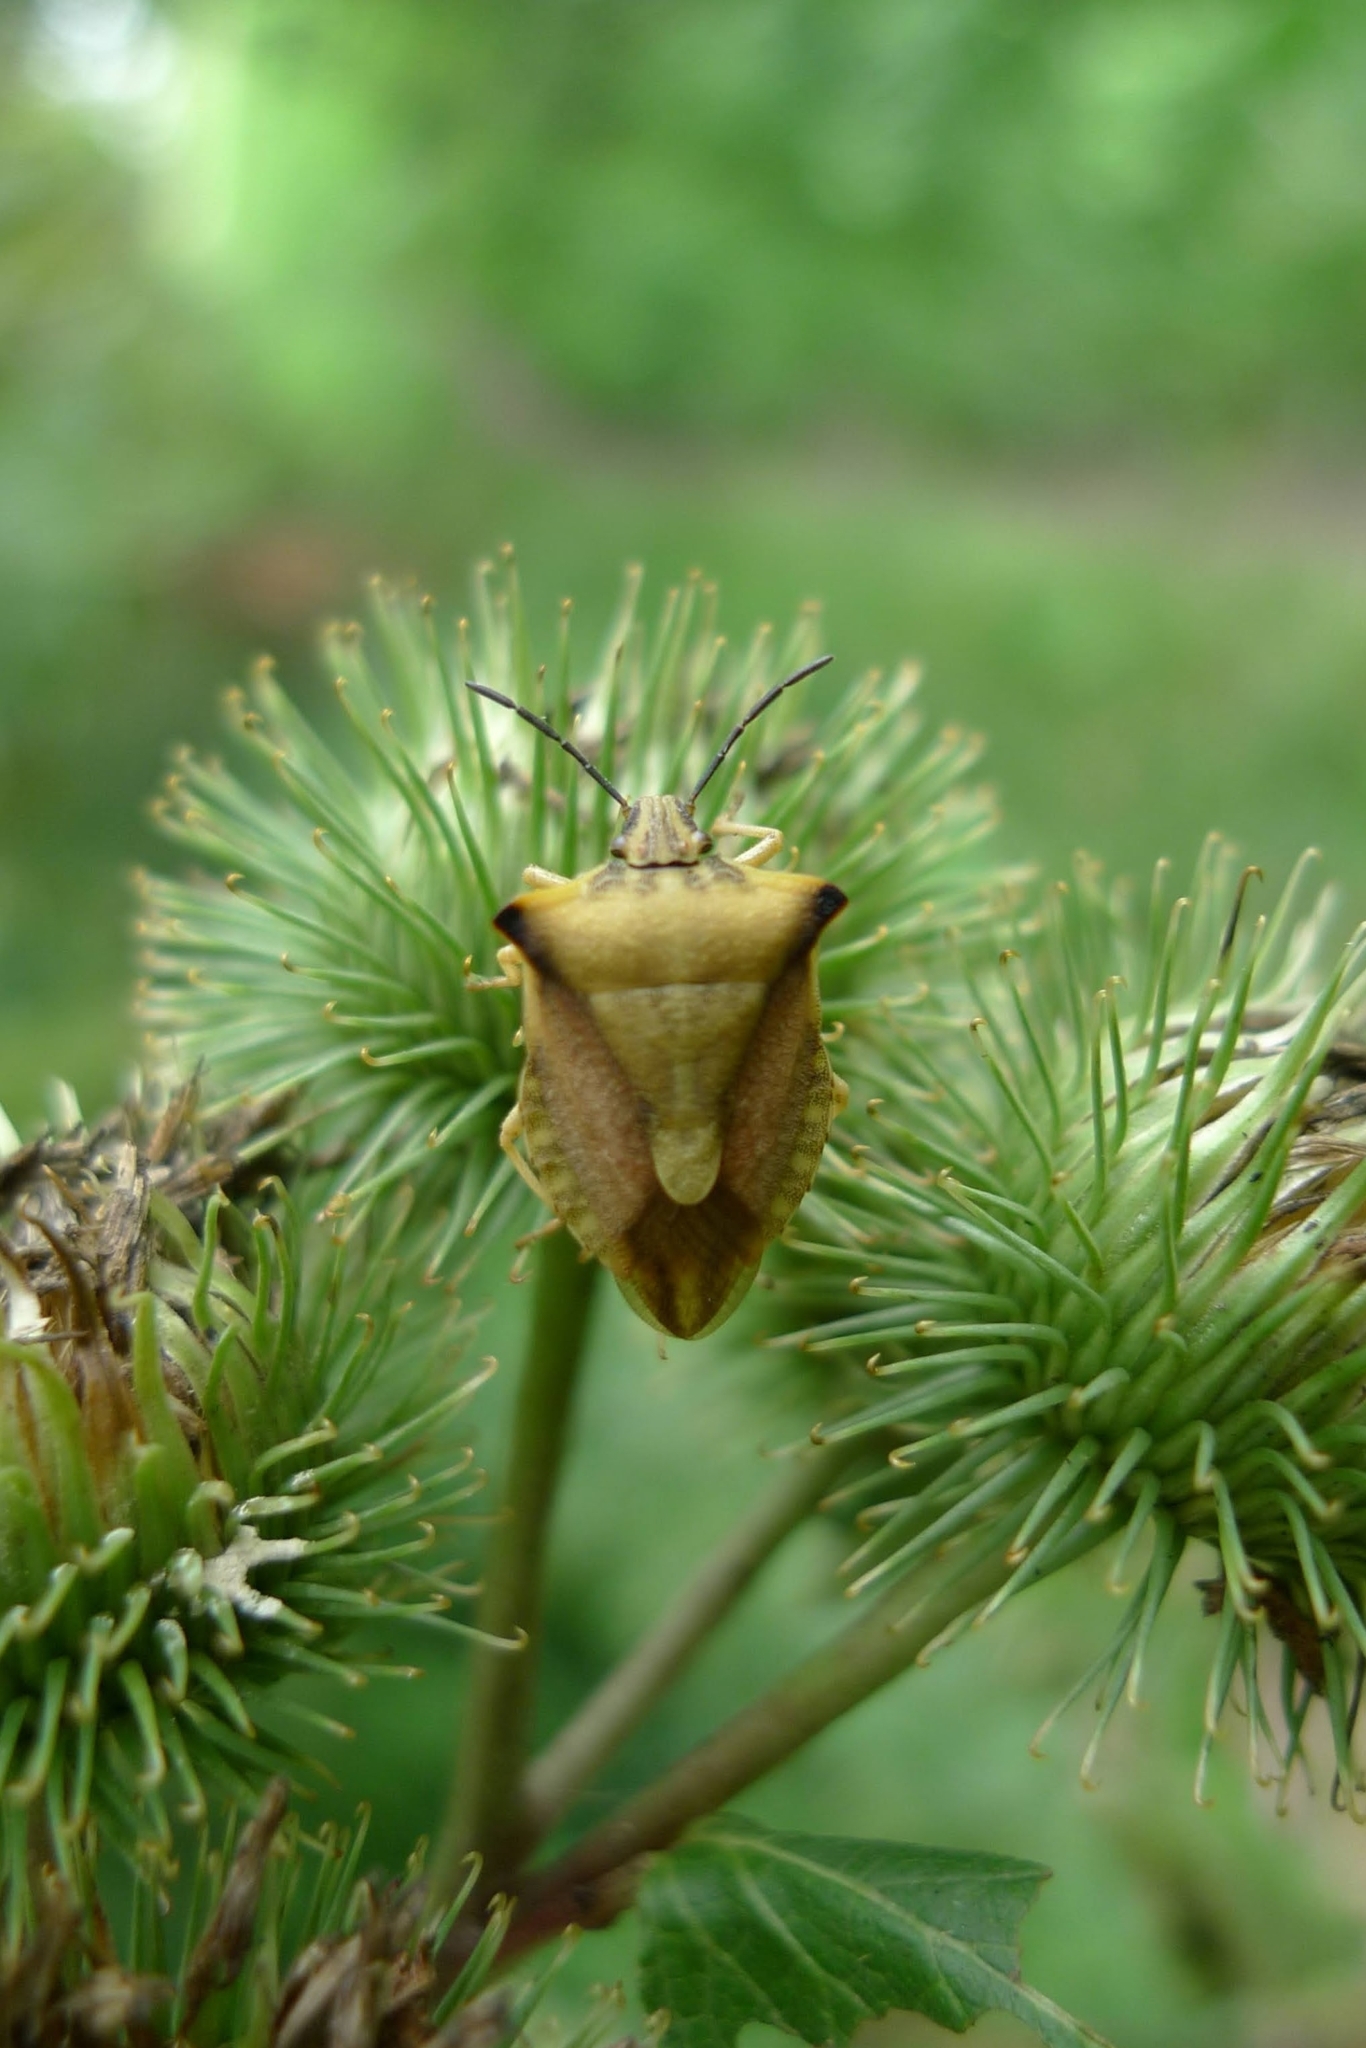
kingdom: Animalia
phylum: Arthropoda
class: Insecta
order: Hemiptera
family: Pentatomidae
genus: Carpocoris
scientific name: Carpocoris fuscispinus
